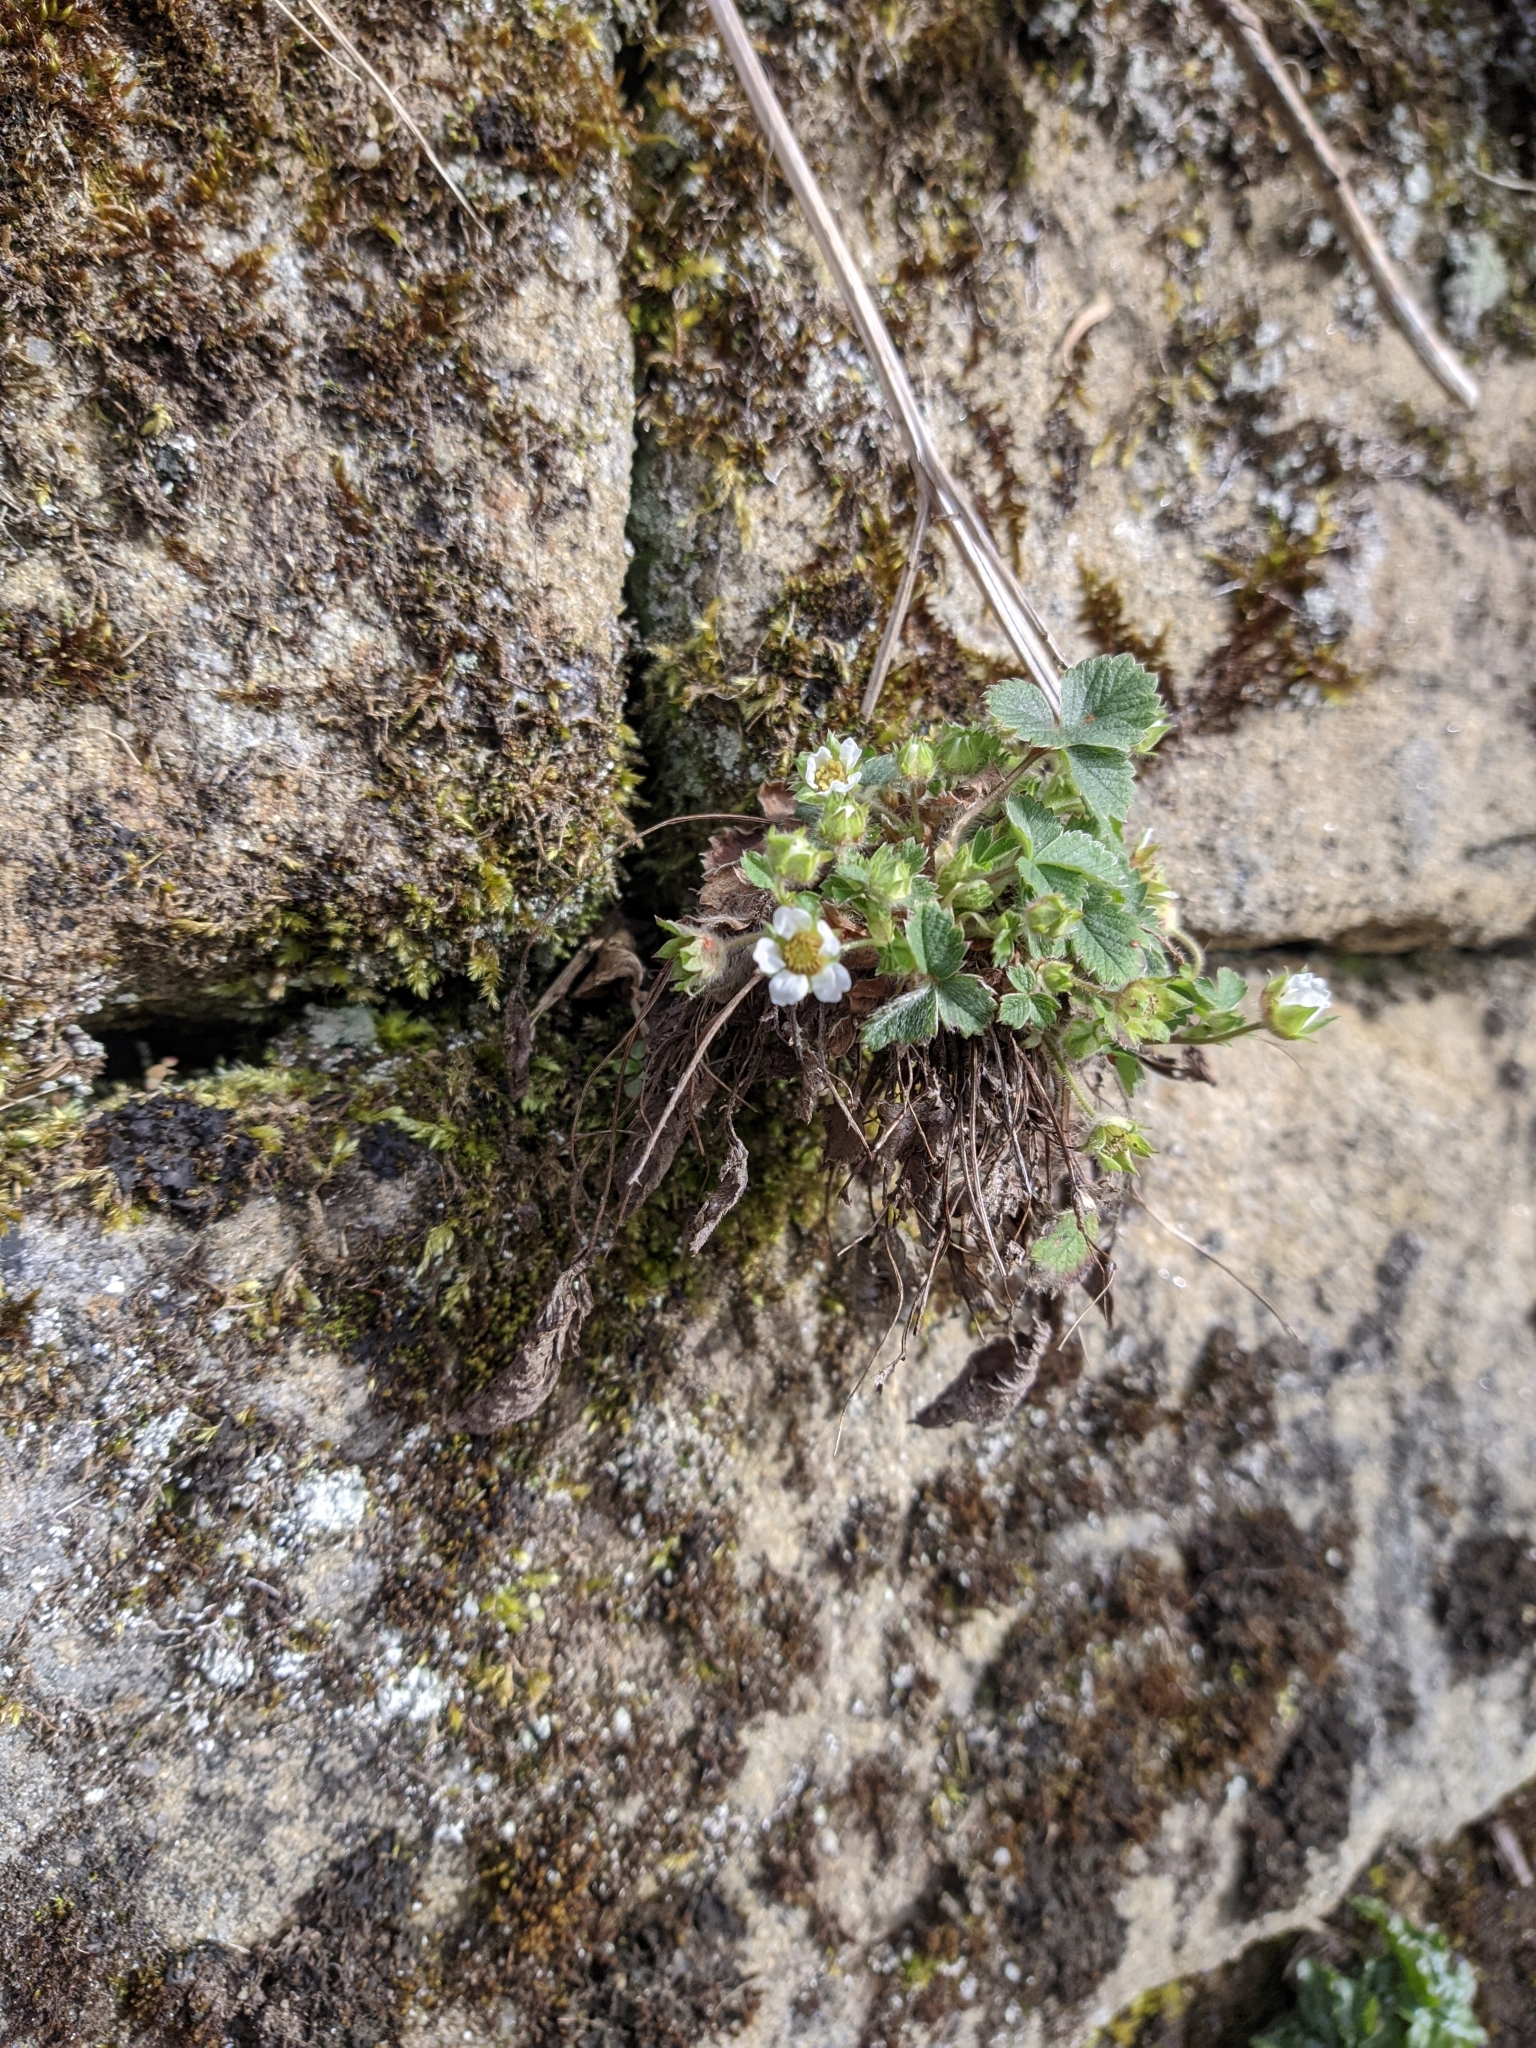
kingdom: Plantae
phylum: Tracheophyta
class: Magnoliopsida
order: Rosales
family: Rosaceae
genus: Potentilla
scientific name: Potentilla sterilis
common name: Barren strawberry
